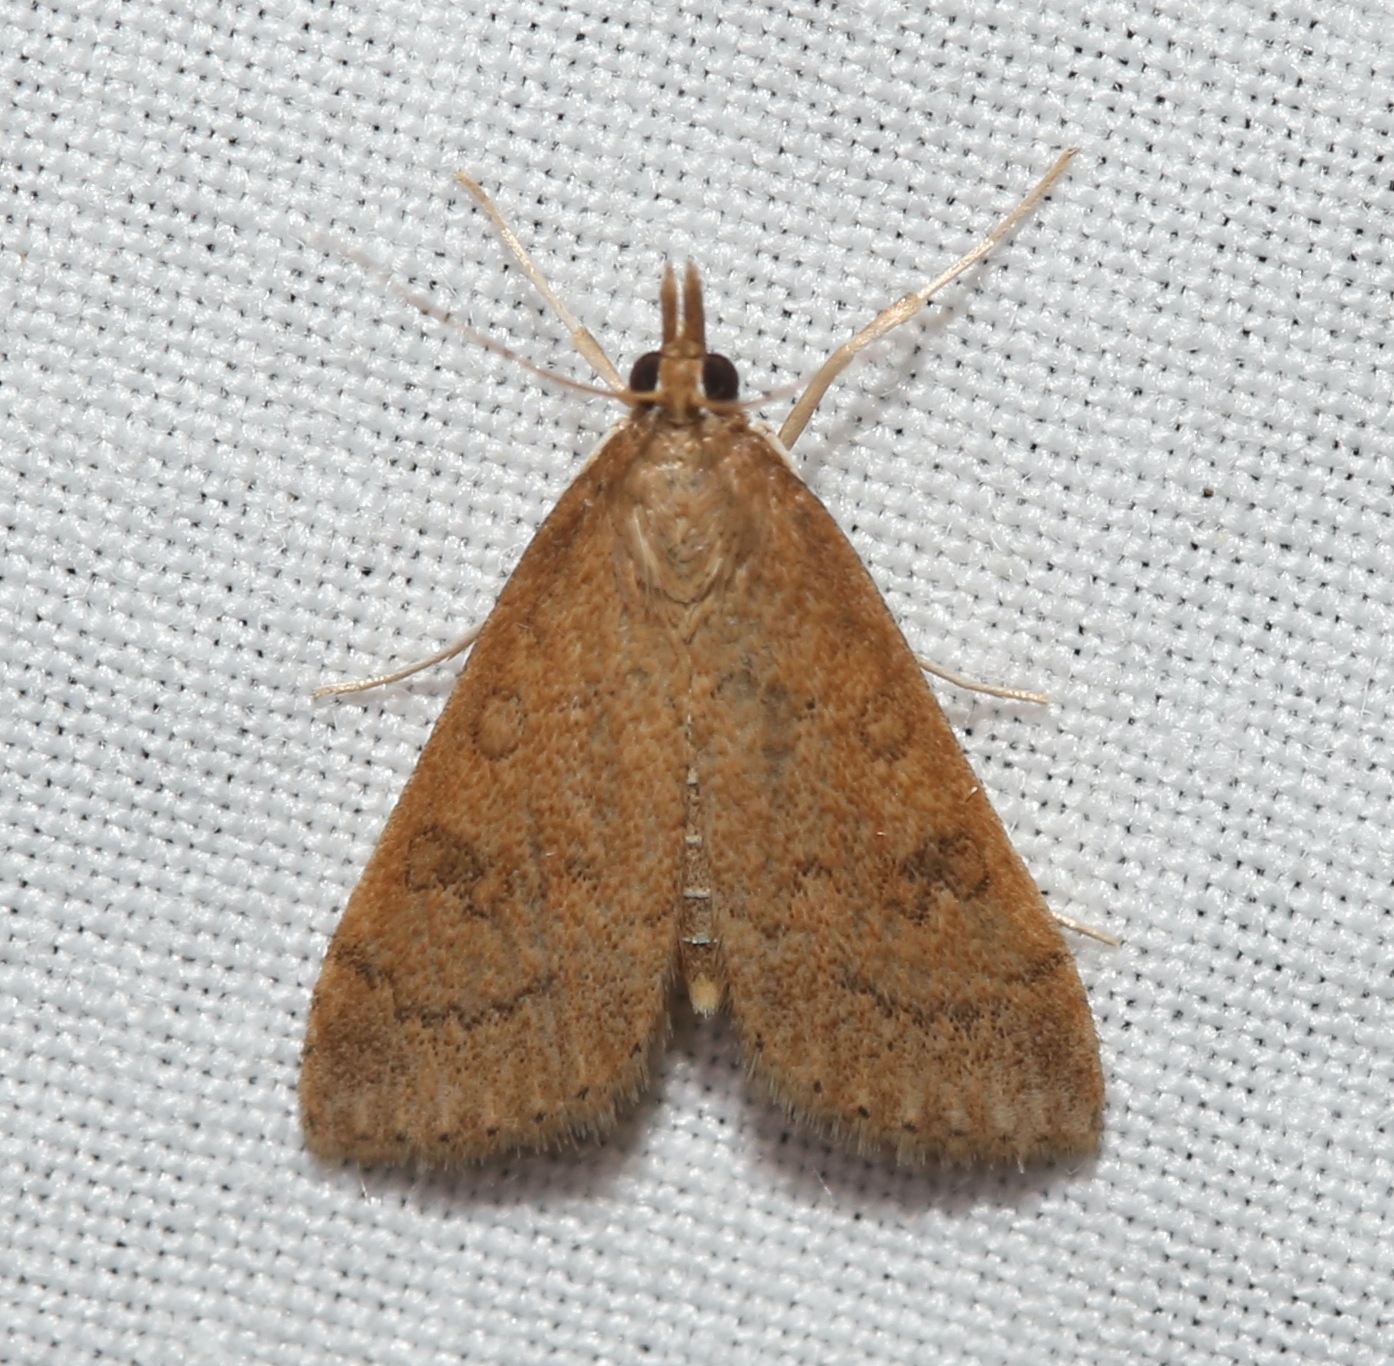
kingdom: Animalia
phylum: Arthropoda
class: Insecta
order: Lepidoptera
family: Crambidae
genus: Udea
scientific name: Udea rubigalis
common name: Celery leaftier moth
